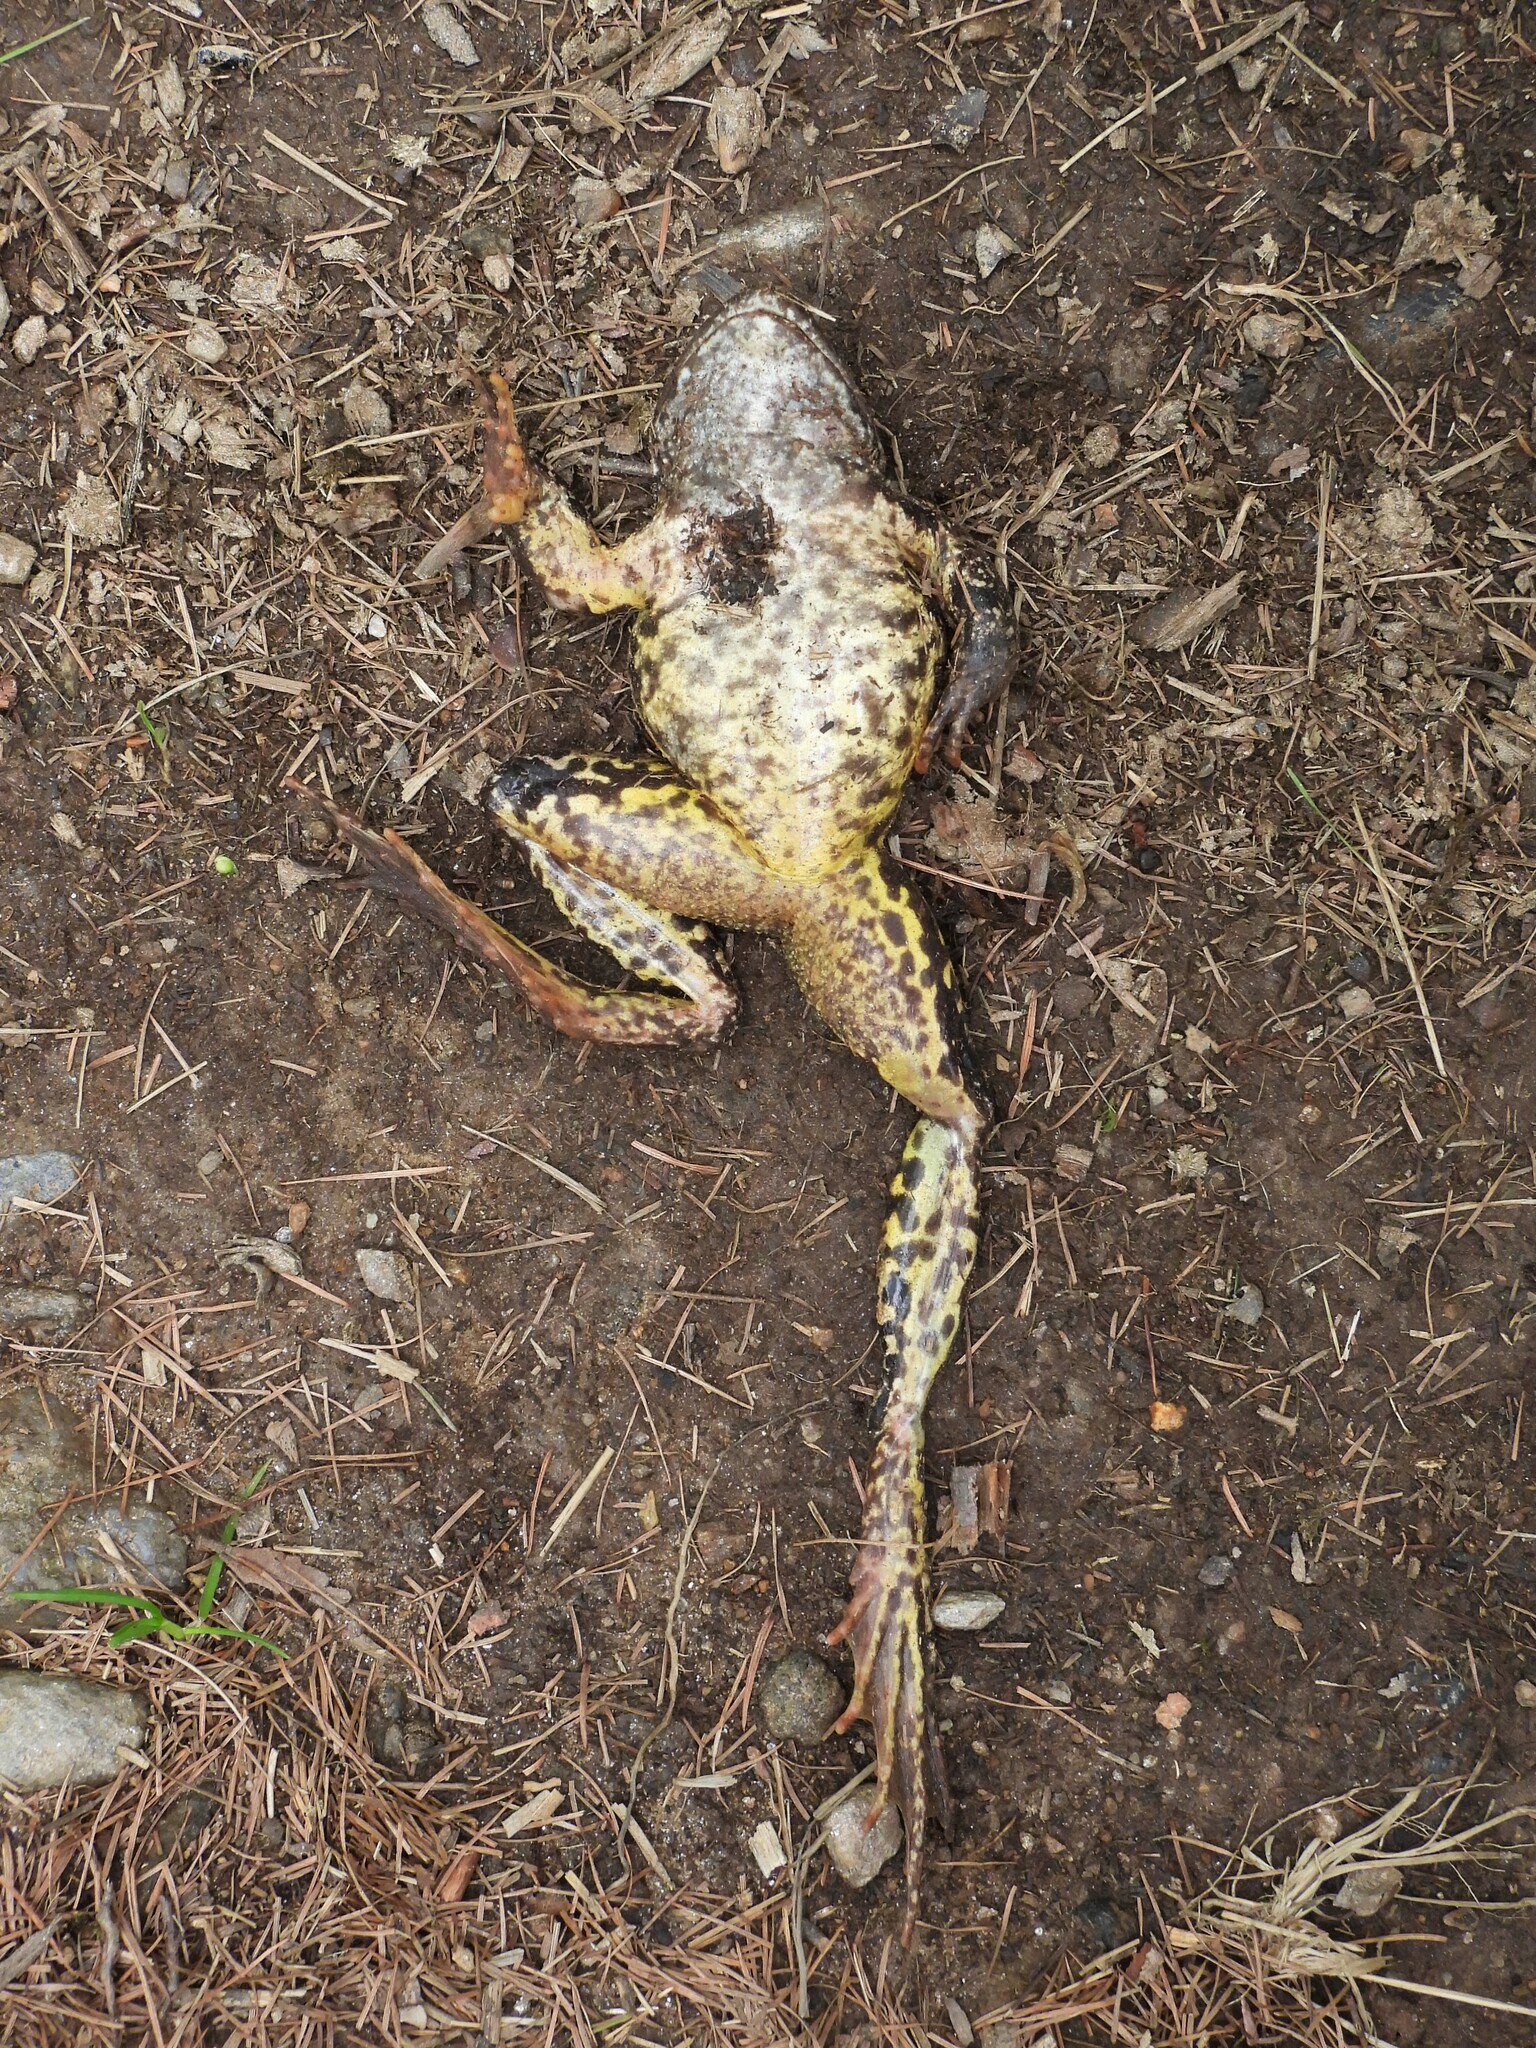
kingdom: Animalia
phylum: Chordata
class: Amphibia
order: Anura
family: Ranidae
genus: Rana
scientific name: Rana temporaria
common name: Common frog
